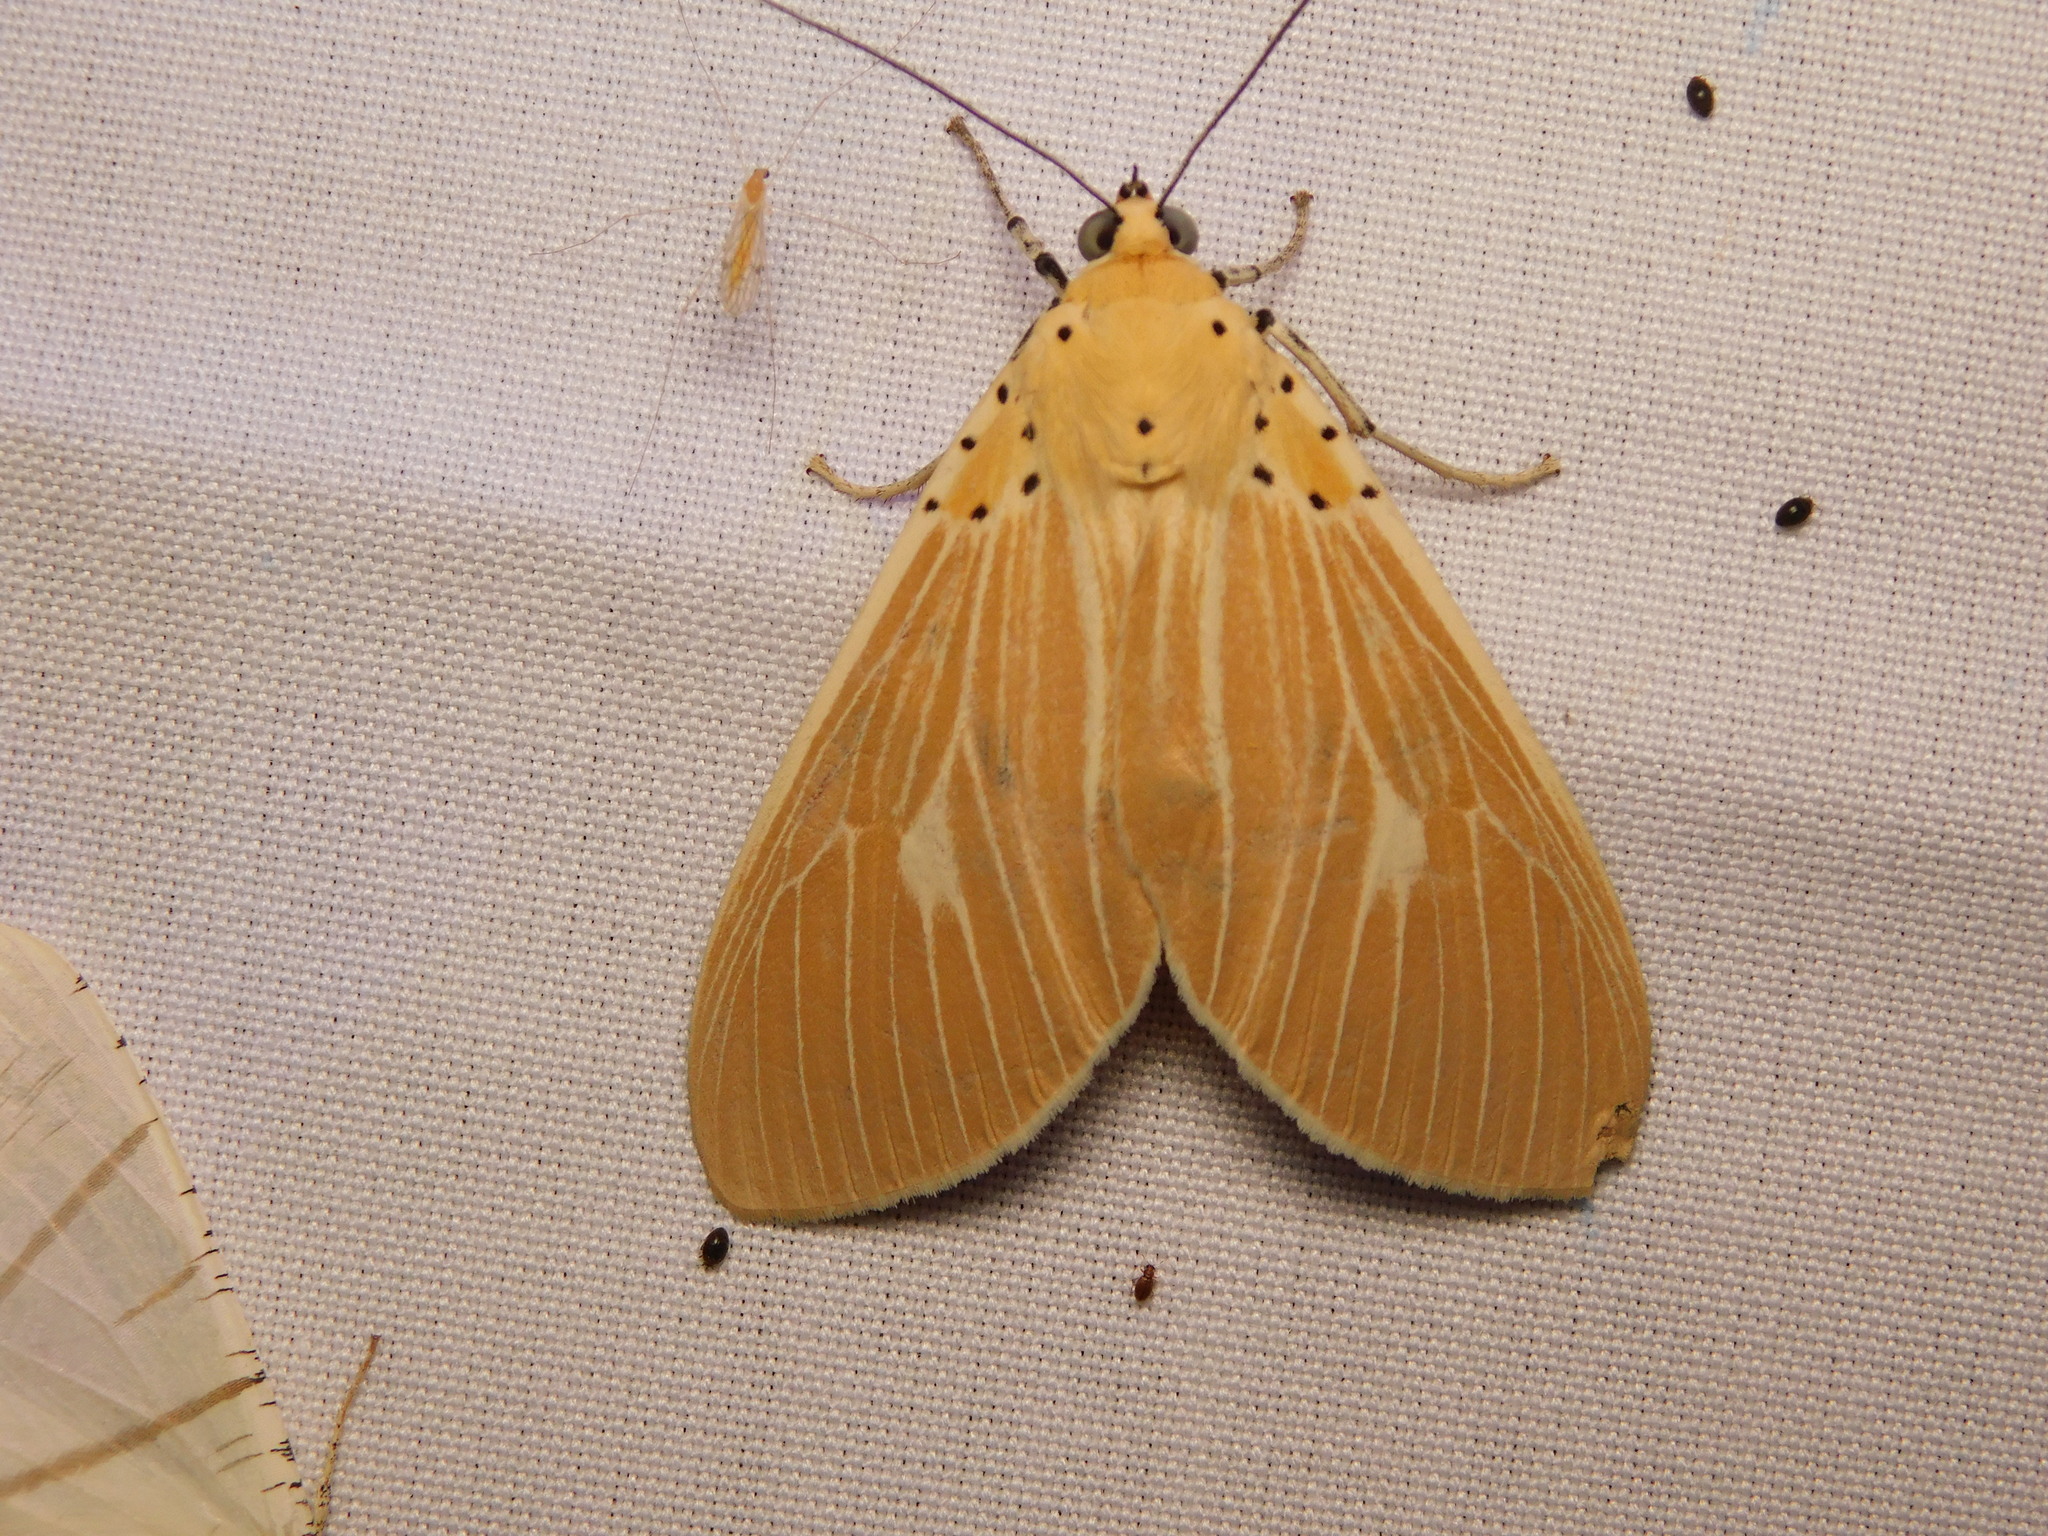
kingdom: Animalia
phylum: Arthropoda
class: Insecta
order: Lepidoptera
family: Erebidae
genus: Asota
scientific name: Asota producta
